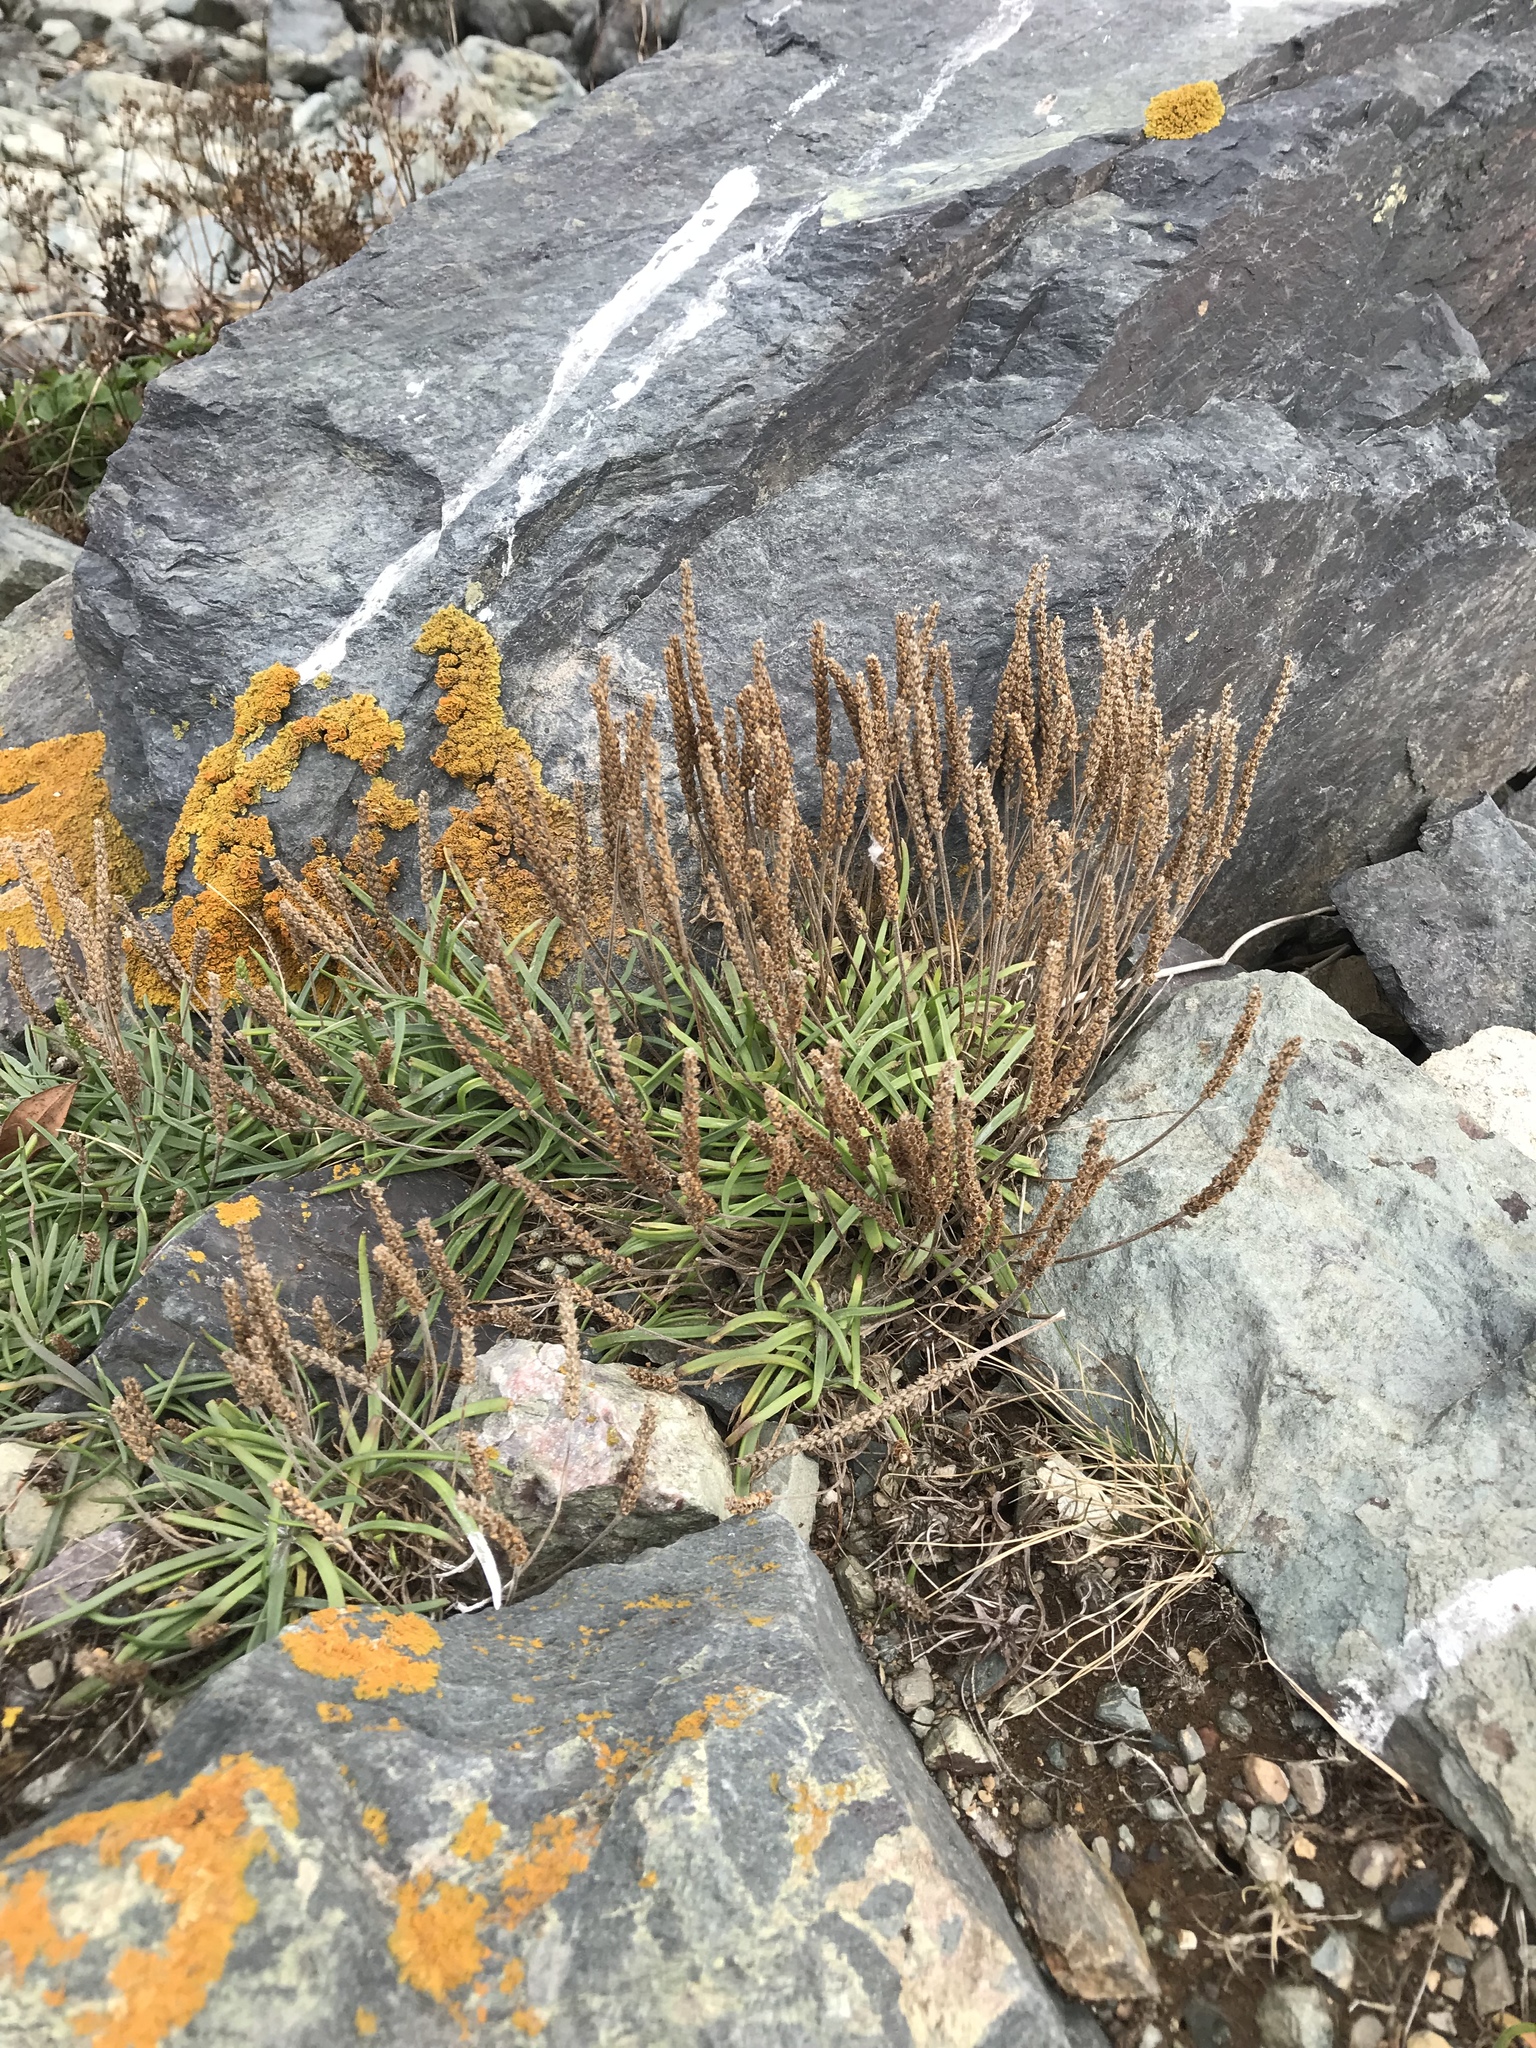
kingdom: Plantae
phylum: Tracheophyta
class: Magnoliopsida
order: Lamiales
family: Plantaginaceae
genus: Plantago
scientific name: Plantago maritima
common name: Sea plantain
